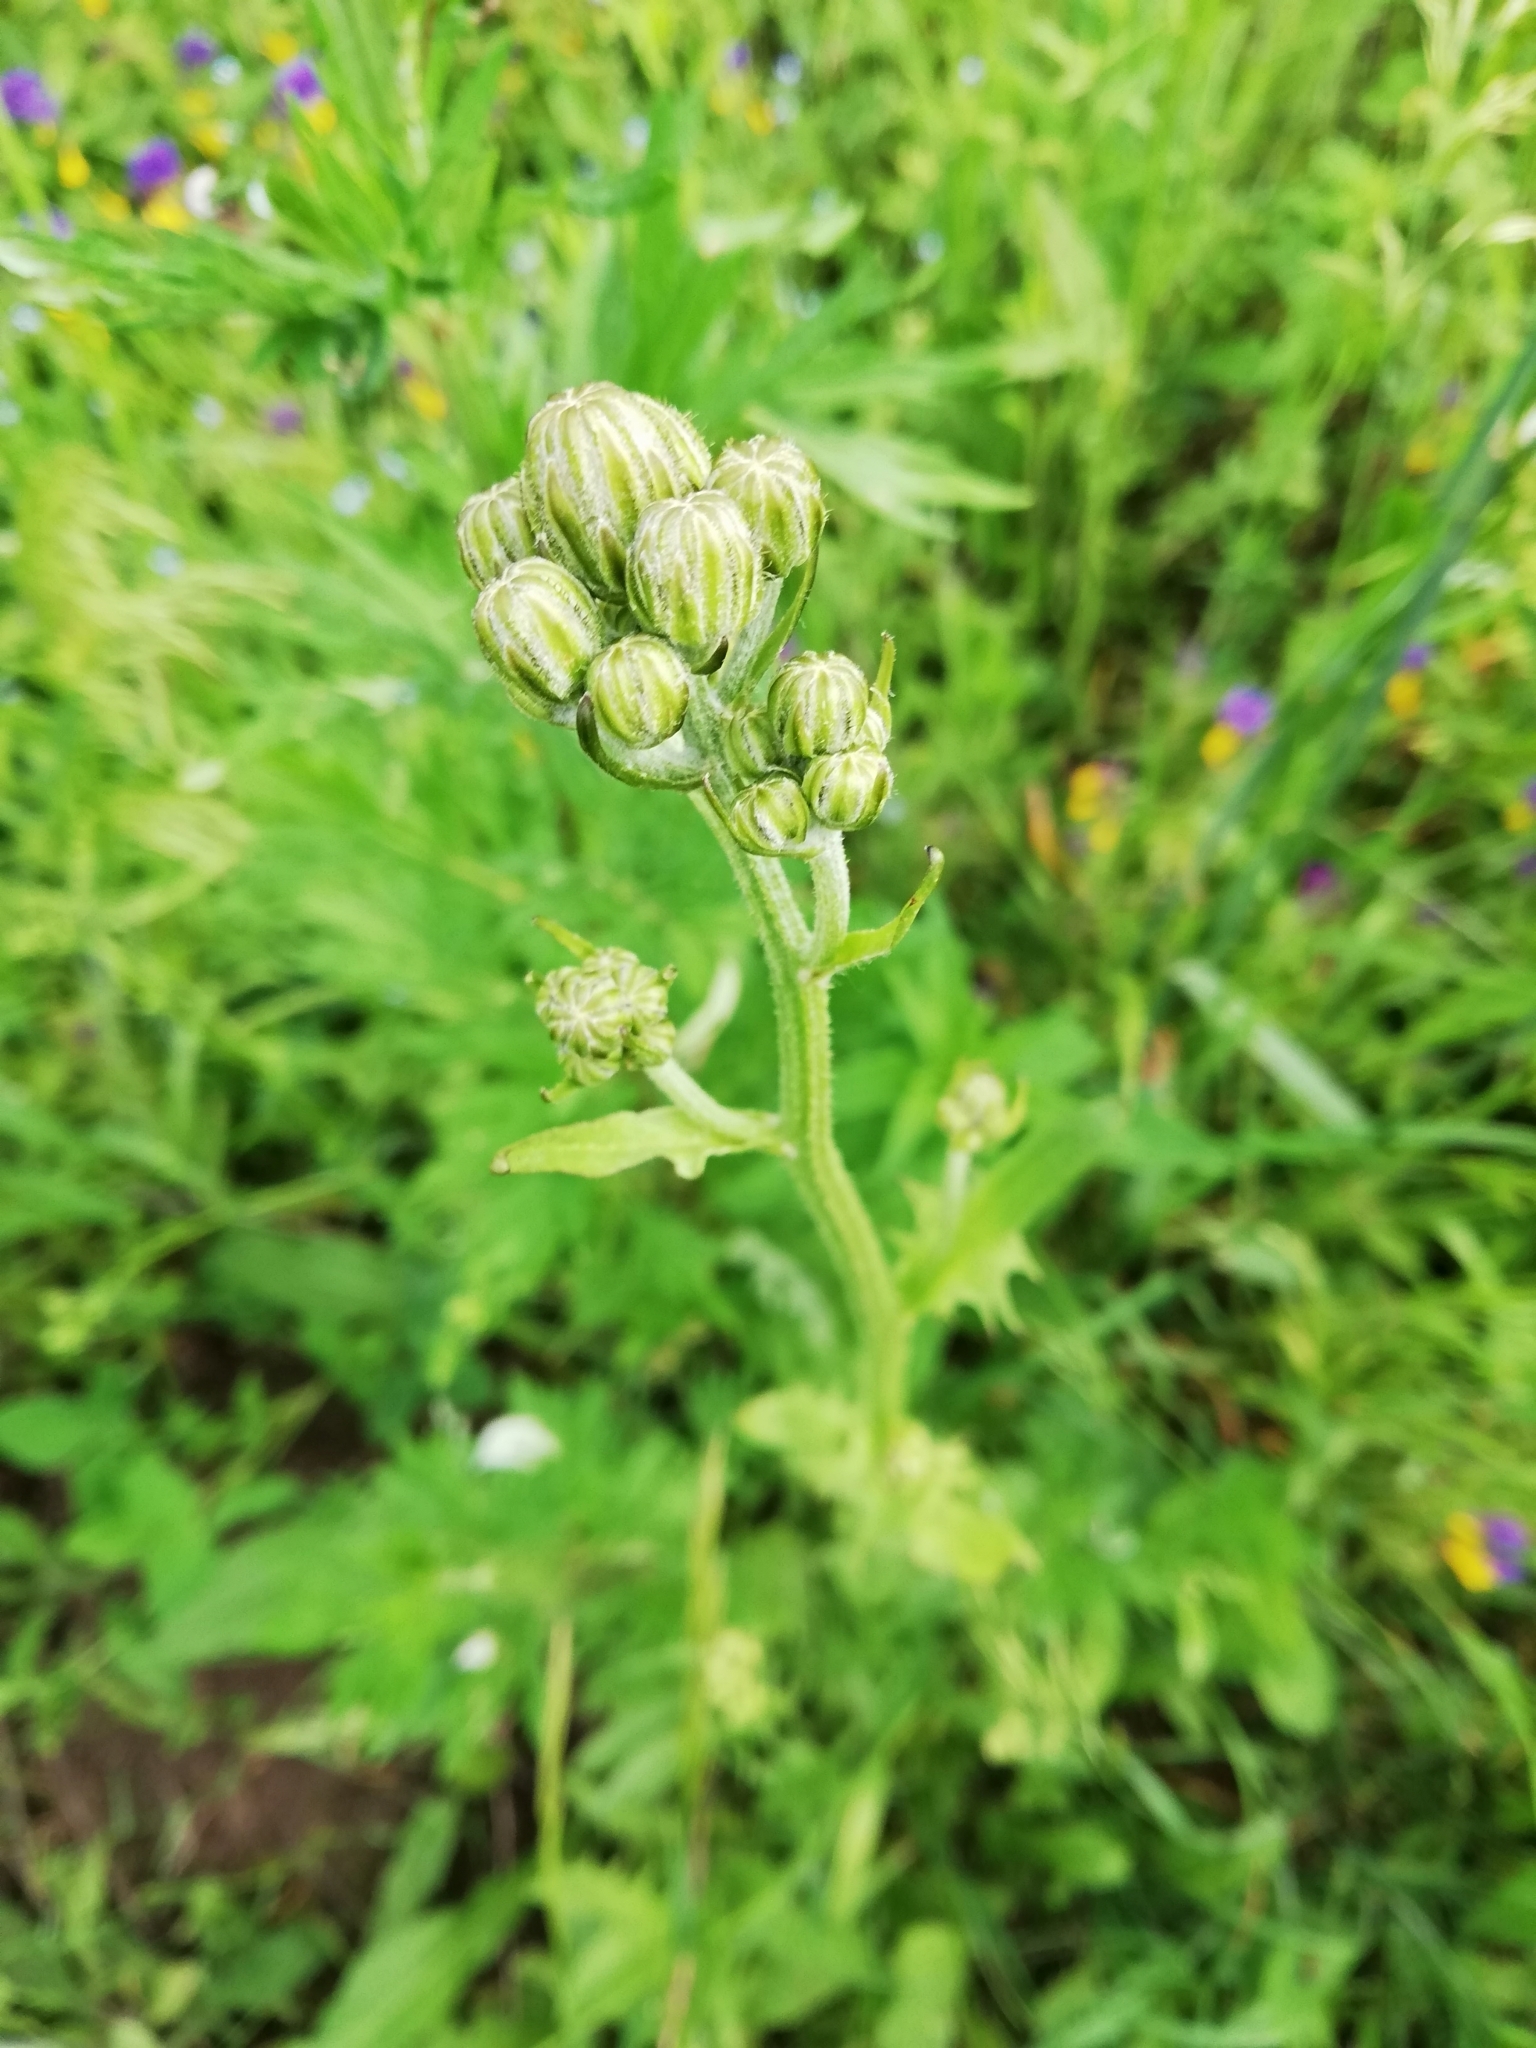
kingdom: Plantae
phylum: Tracheophyta
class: Magnoliopsida
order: Asterales
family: Asteraceae
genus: Crepis
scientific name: Crepis biennis
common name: Rough hawk's-beard
